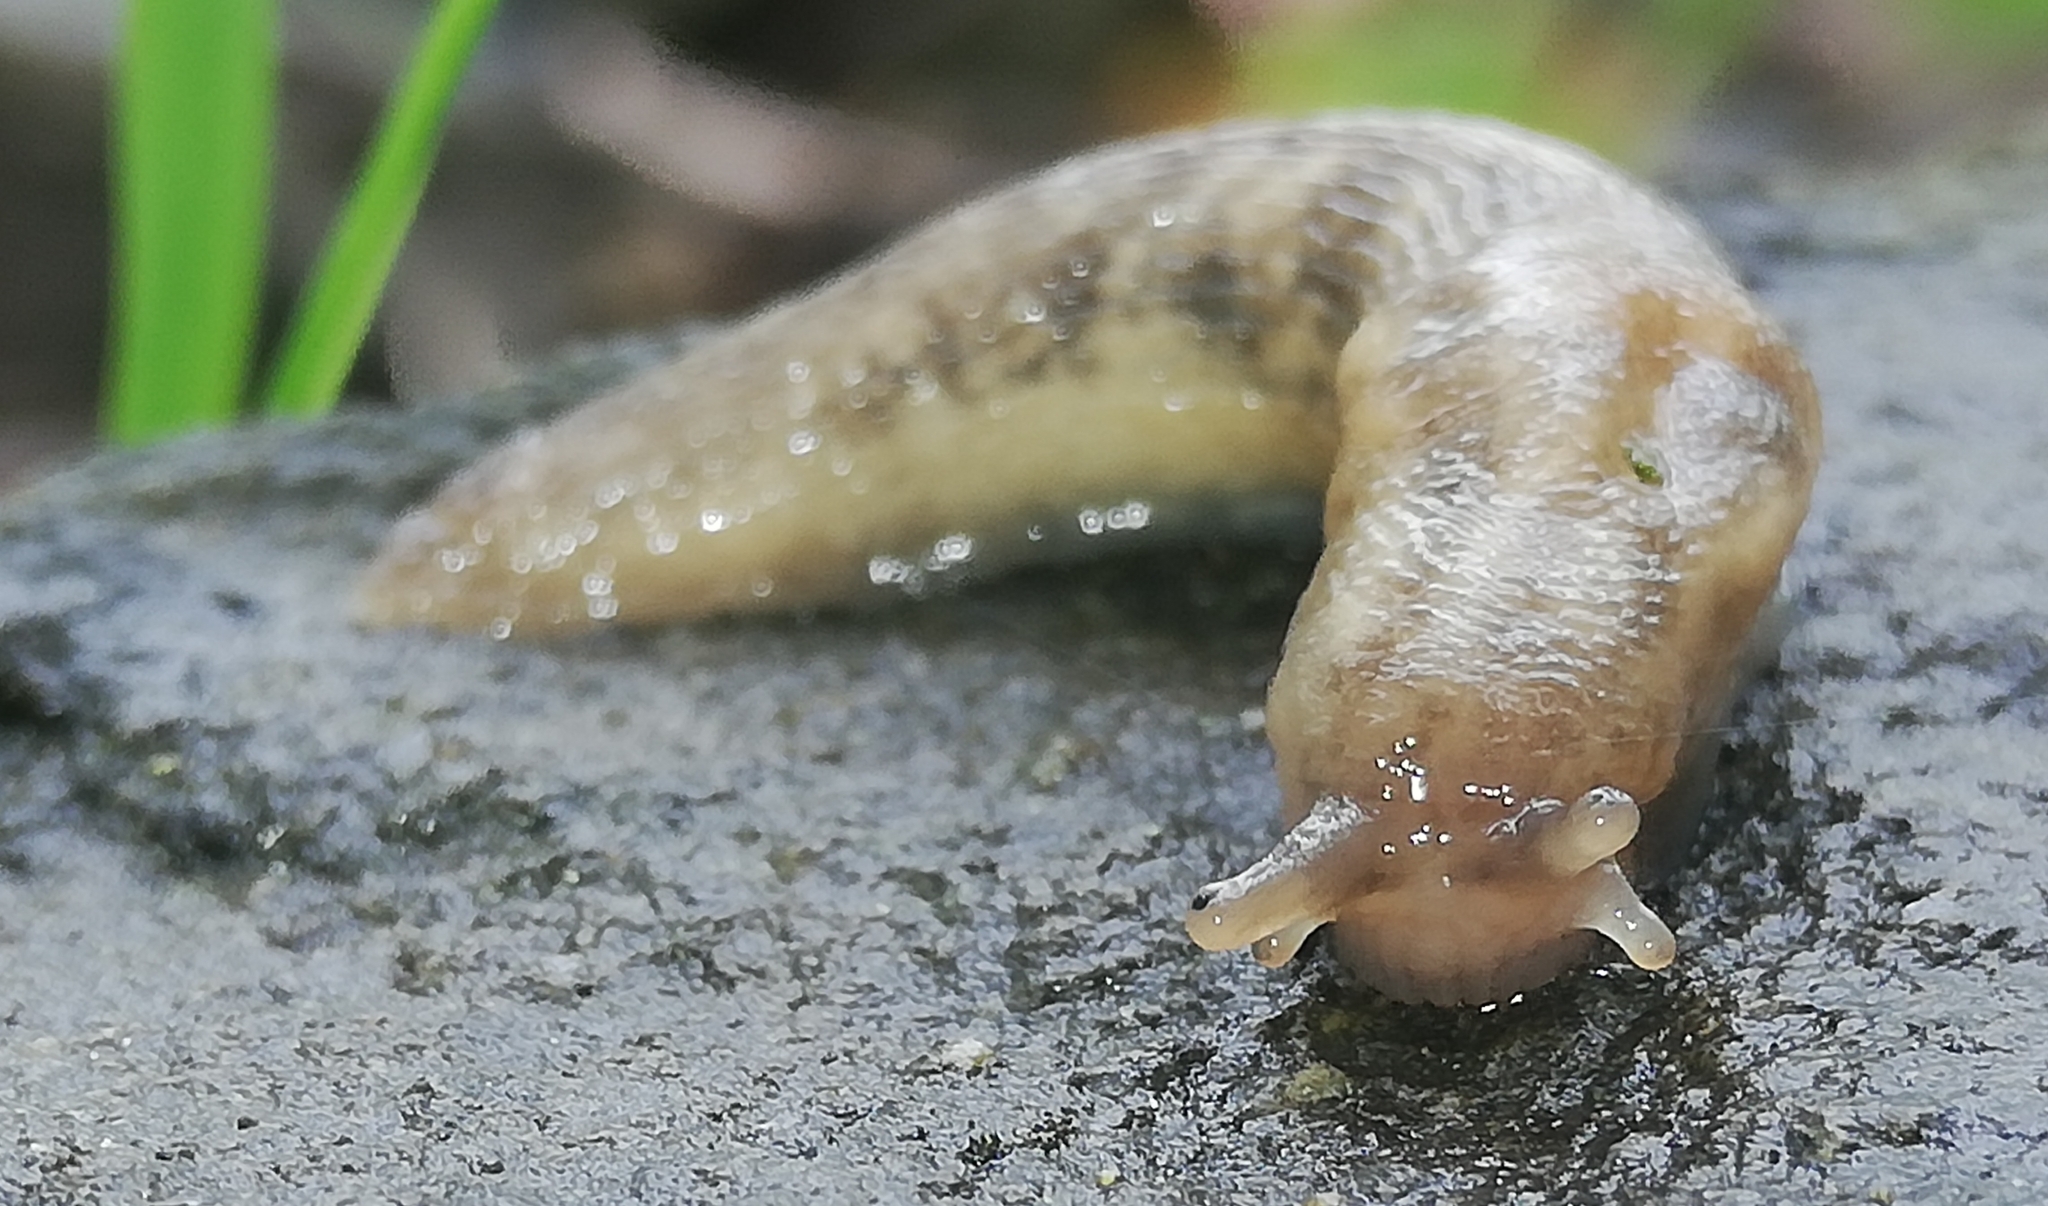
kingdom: Animalia
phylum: Mollusca
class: Gastropoda
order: Stylommatophora
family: Limacidae
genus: Lehmannia
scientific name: Lehmannia marginata
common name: Tree slug
